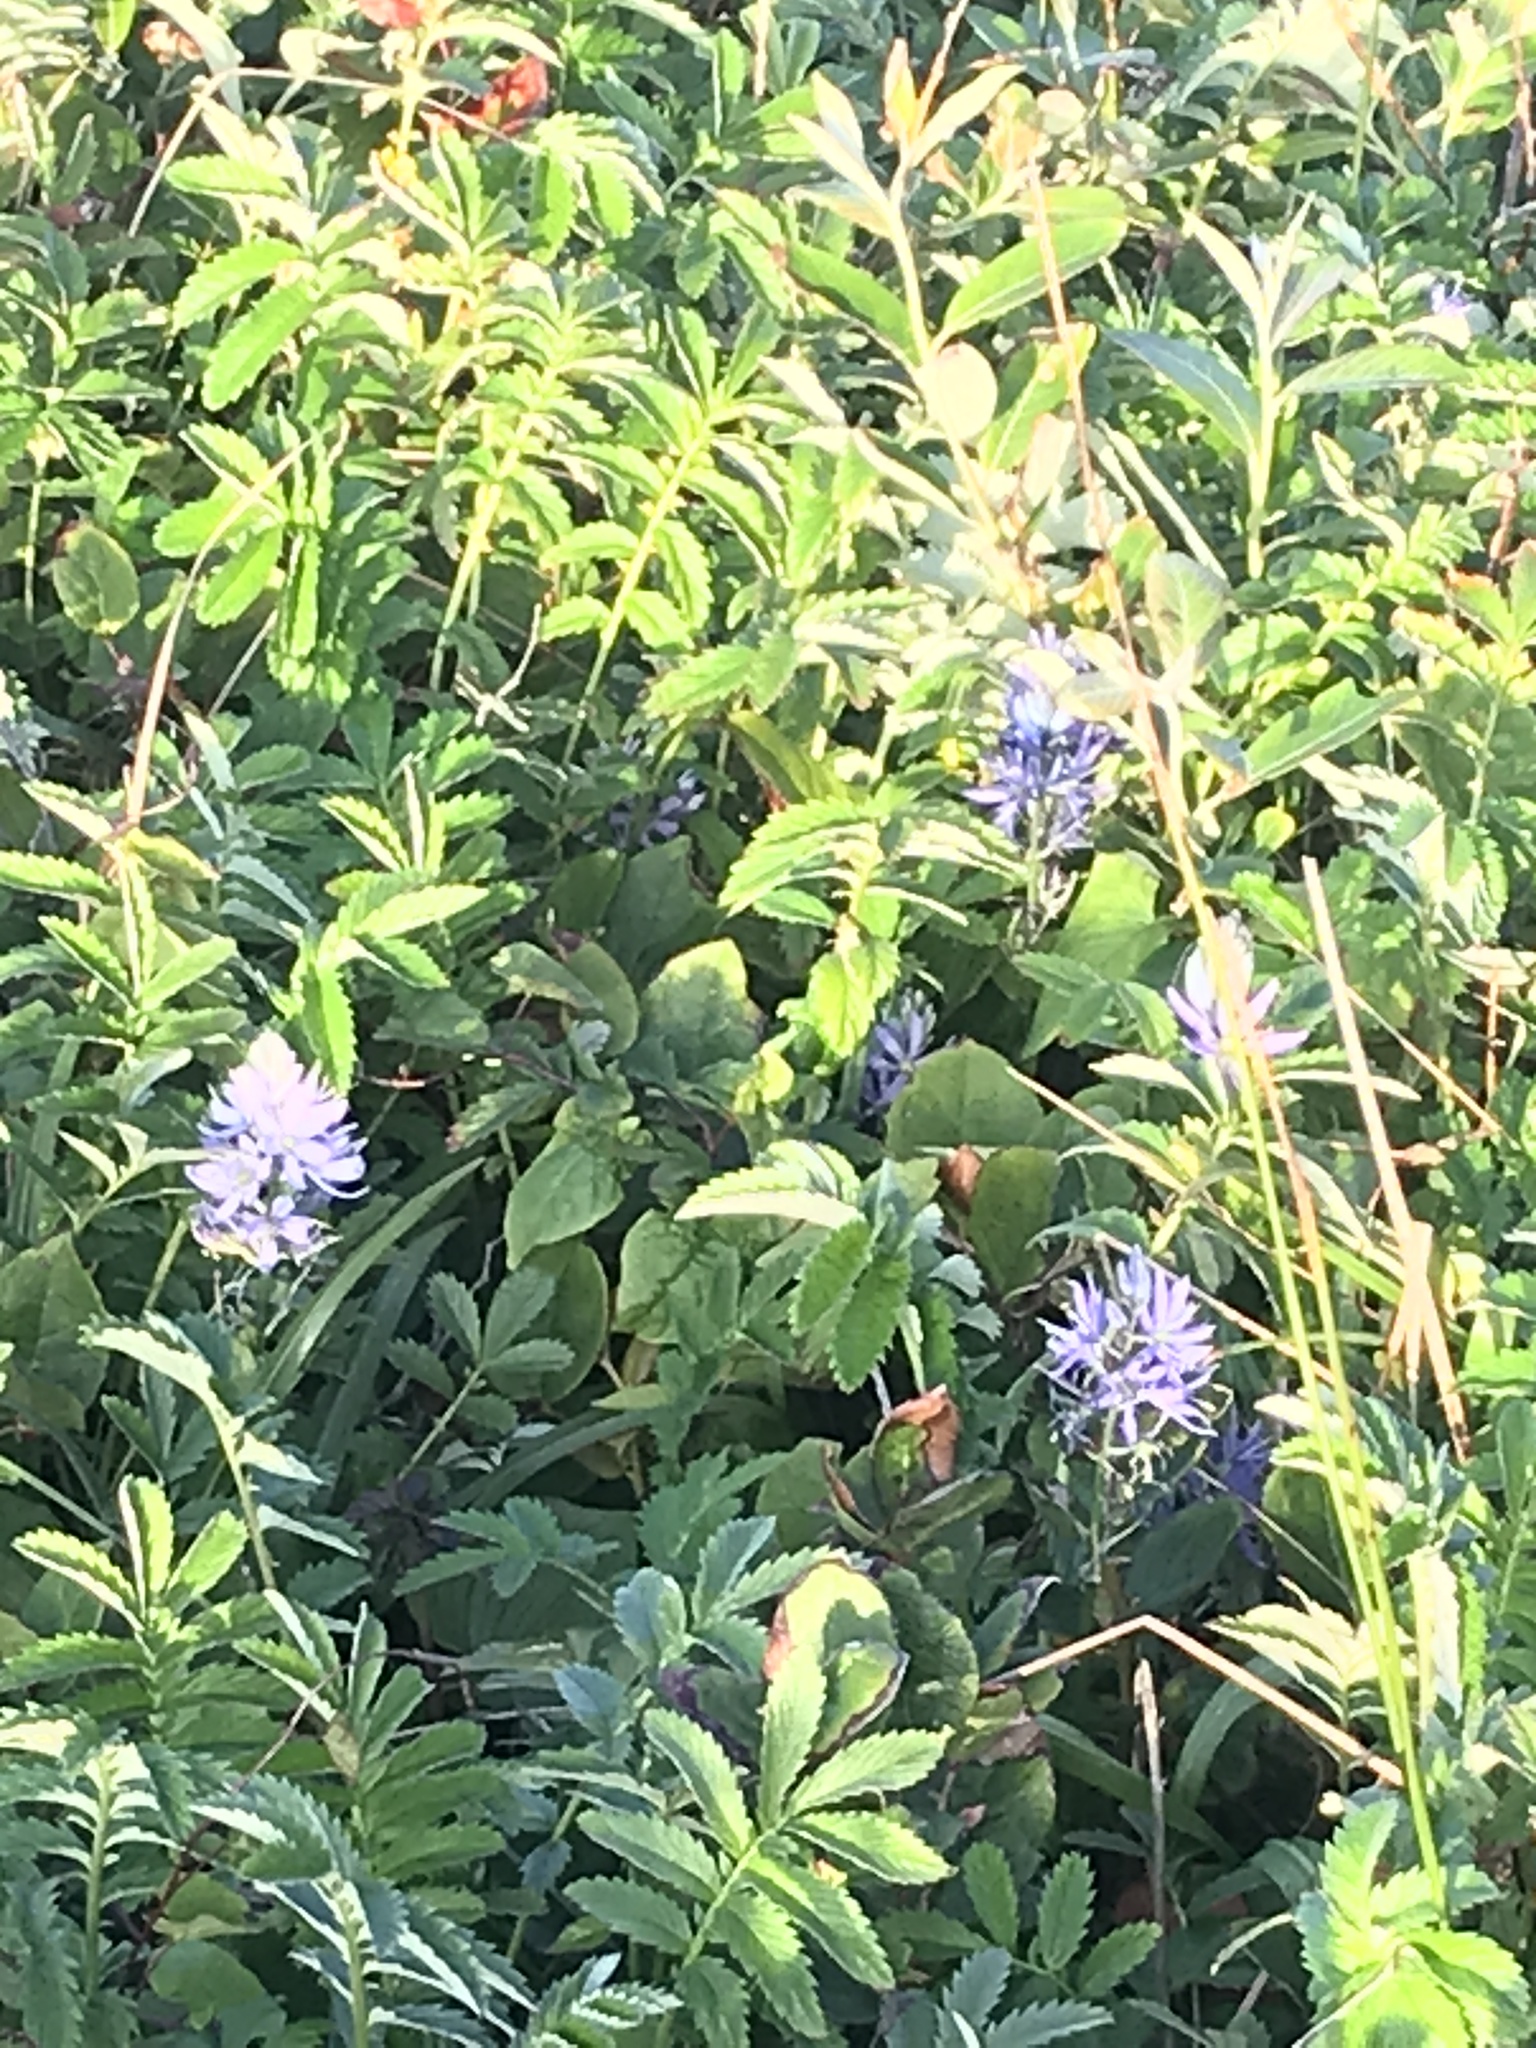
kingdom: Plantae
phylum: Tracheophyta
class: Liliopsida
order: Asparagales
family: Asparagaceae
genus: Camassia
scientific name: Camassia quamash
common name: Common camas
